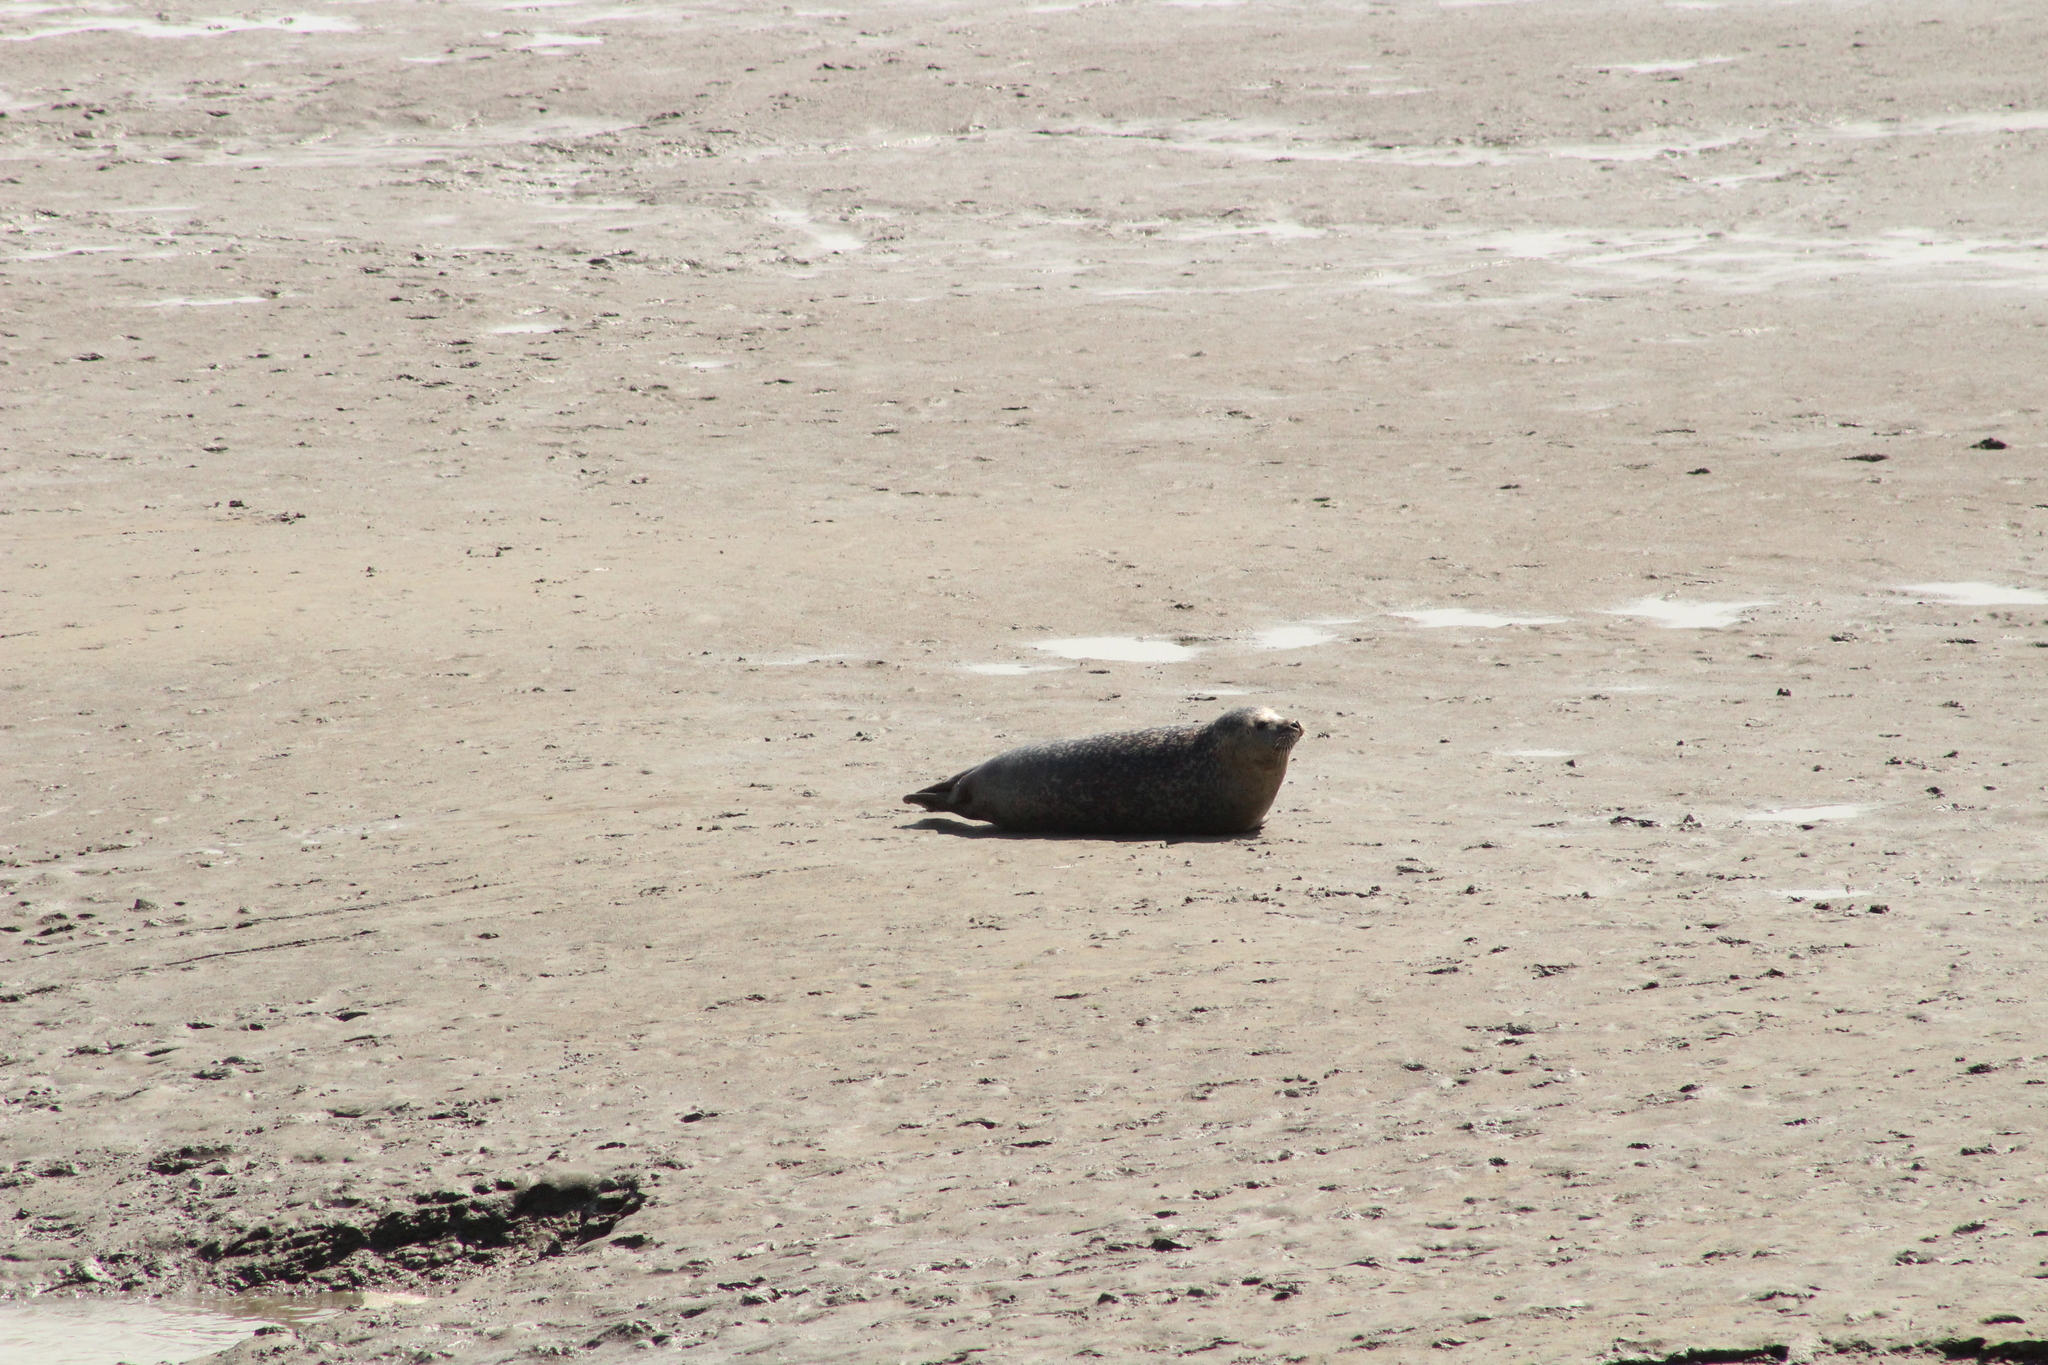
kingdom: Animalia
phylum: Chordata
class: Mammalia
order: Carnivora
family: Phocidae
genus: Phoca
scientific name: Phoca vitulina
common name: Harbor seal
